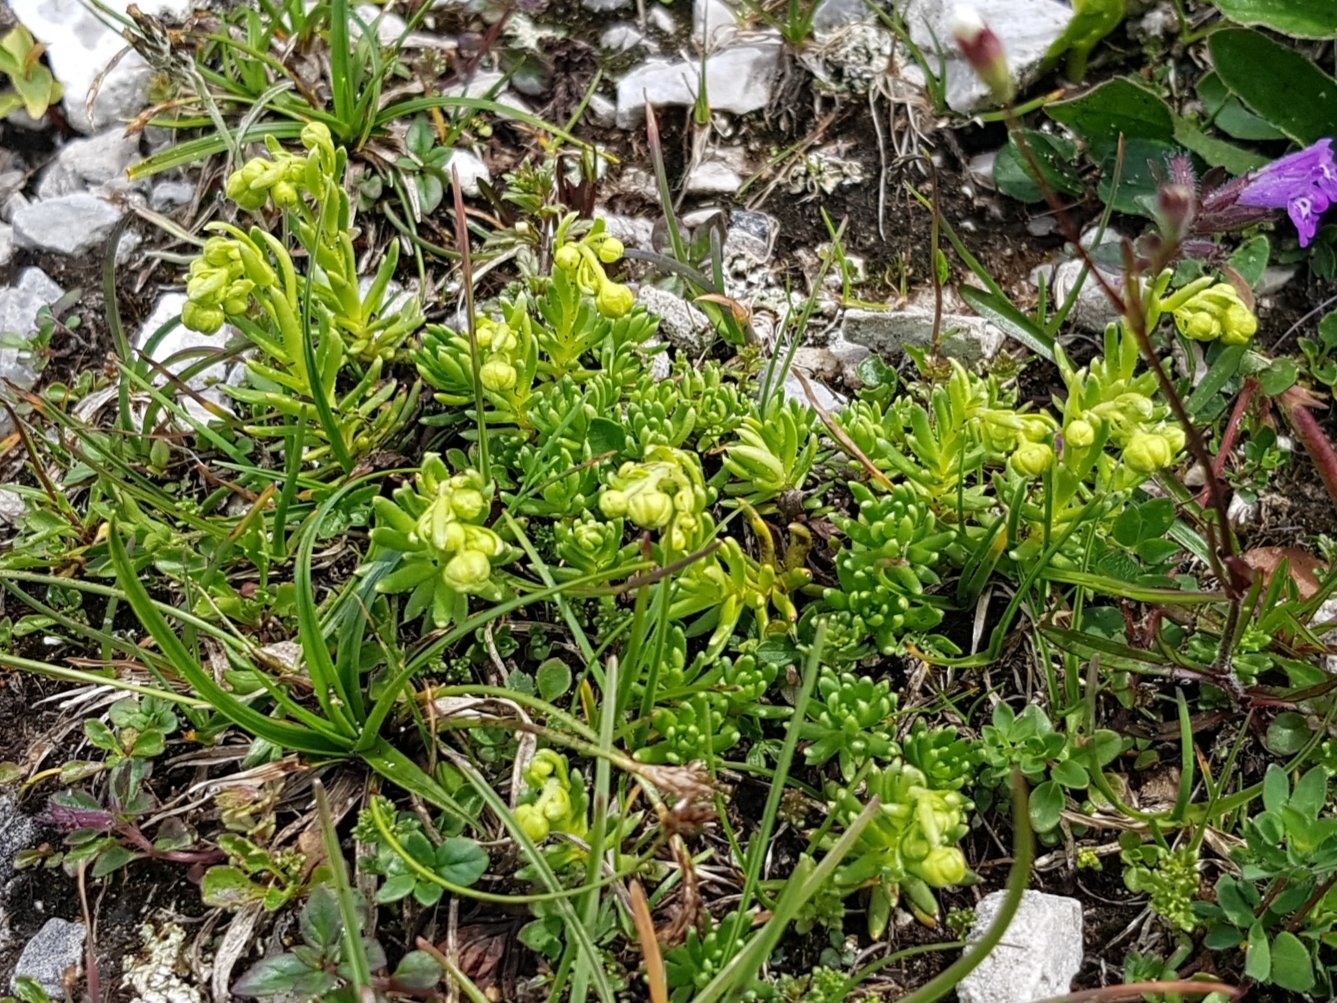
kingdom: Plantae
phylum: Tracheophyta
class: Magnoliopsida
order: Saxifragales
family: Saxifragaceae
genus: Saxifraga
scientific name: Saxifraga aizoides
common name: Yellow mountain saxifrage
